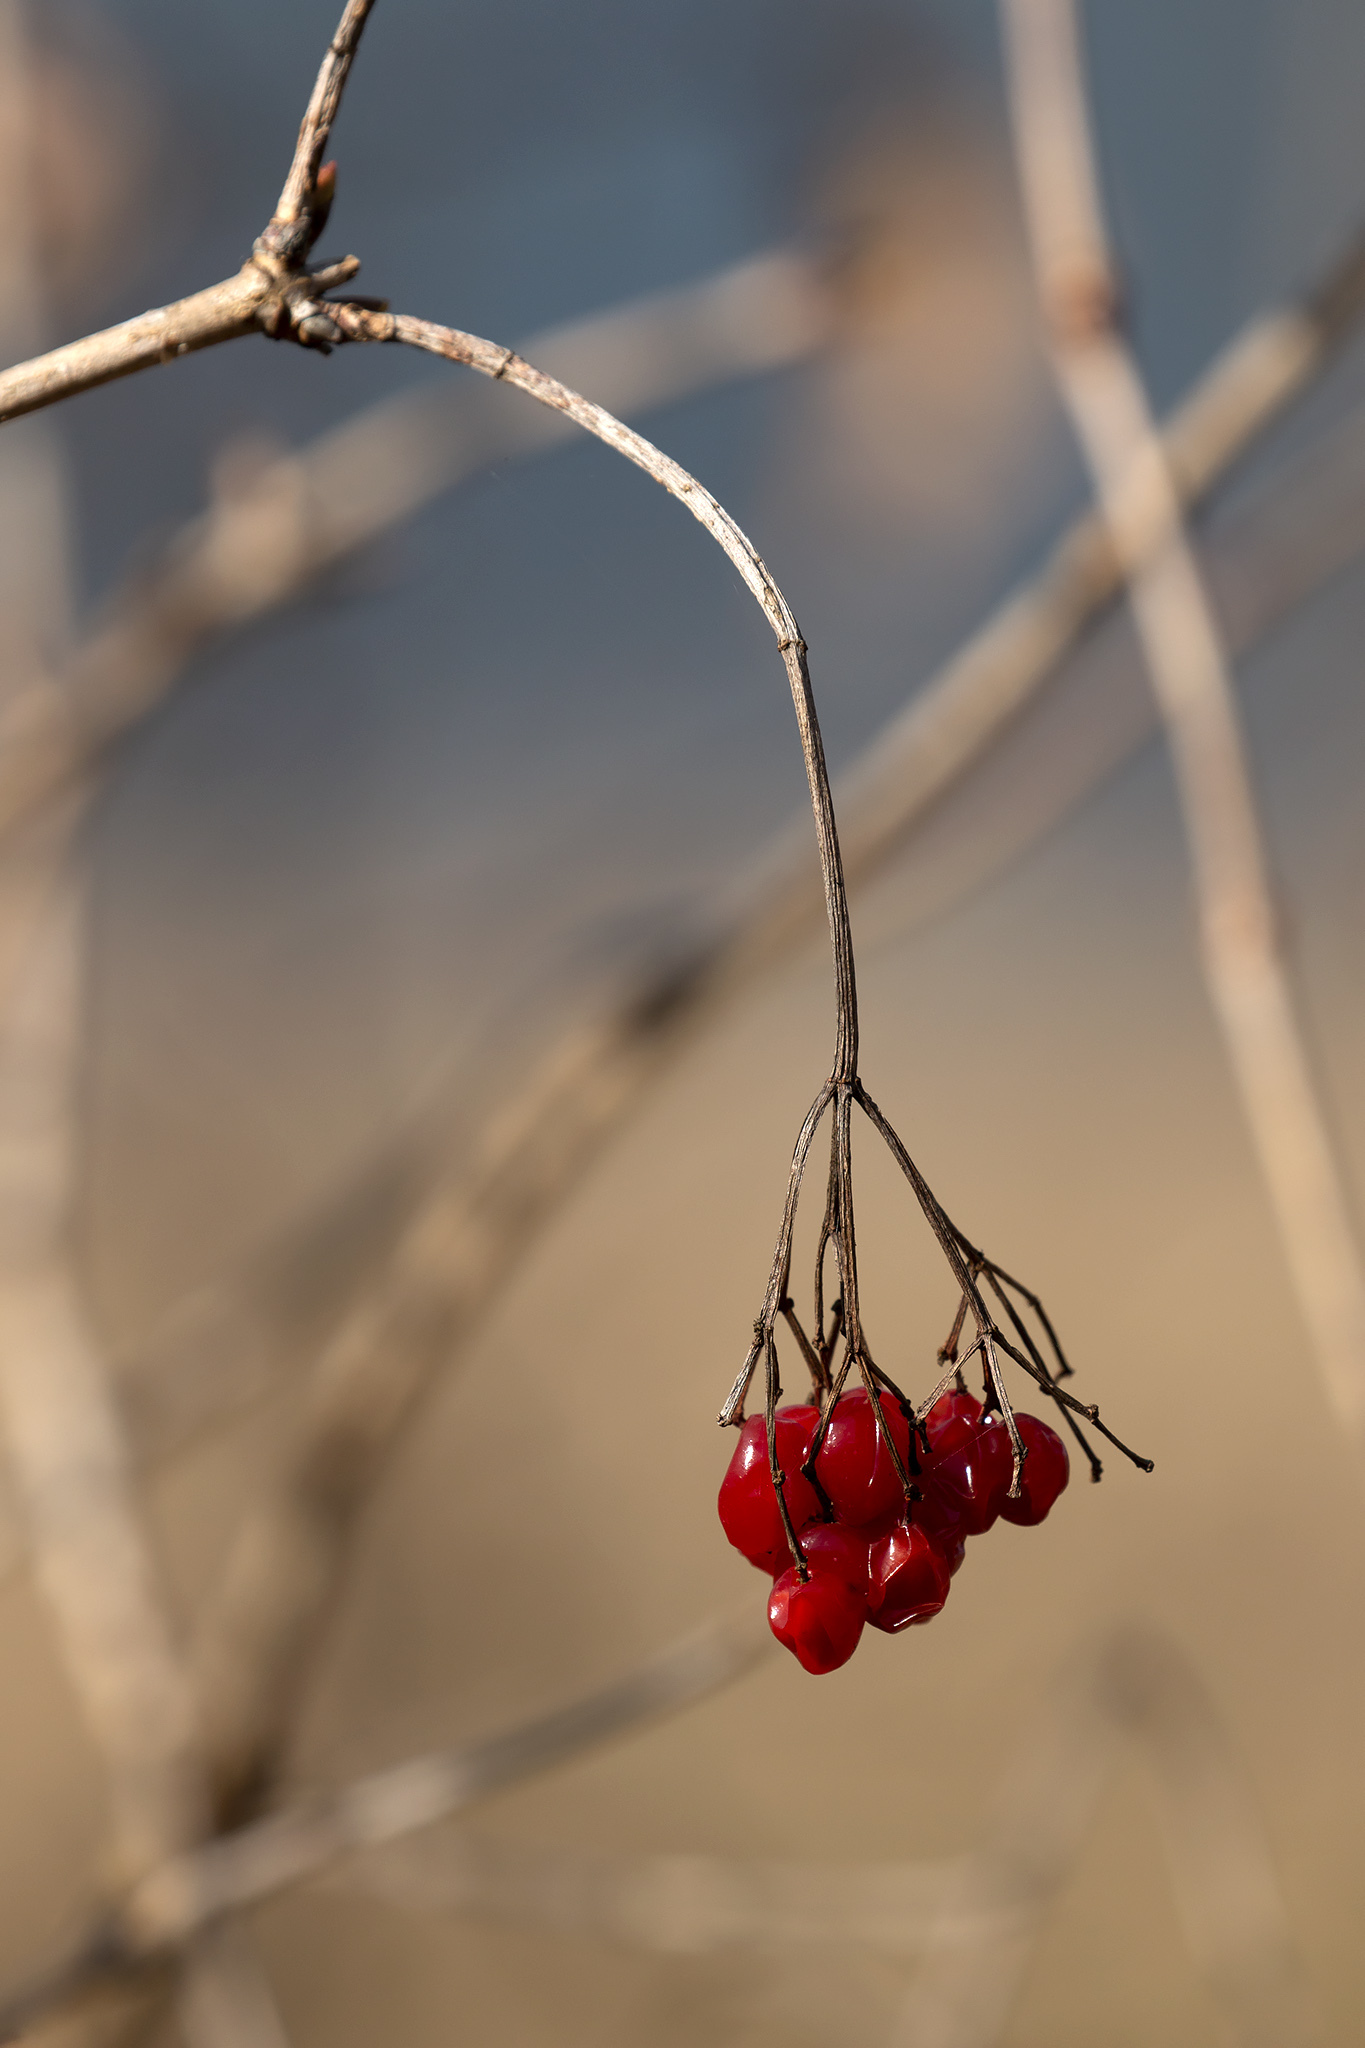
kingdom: Plantae
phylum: Tracheophyta
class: Magnoliopsida
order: Dipsacales
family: Viburnaceae
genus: Viburnum
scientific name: Viburnum opulus
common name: Guelder-rose
